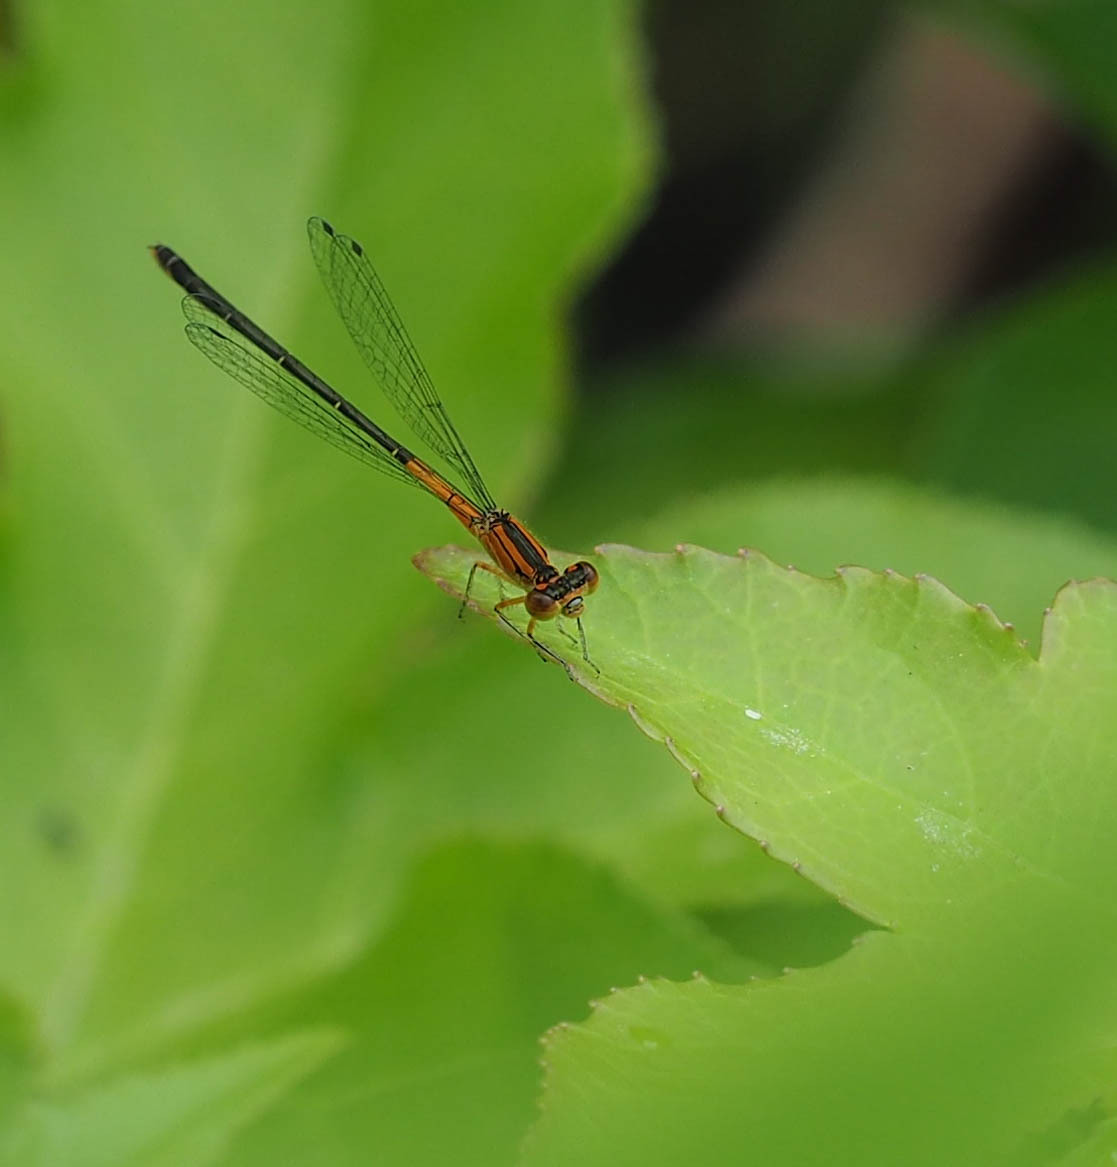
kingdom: Animalia
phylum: Arthropoda
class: Insecta
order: Odonata
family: Coenagrionidae
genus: Ischnura
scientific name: Ischnura verticalis
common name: Eastern forktail
